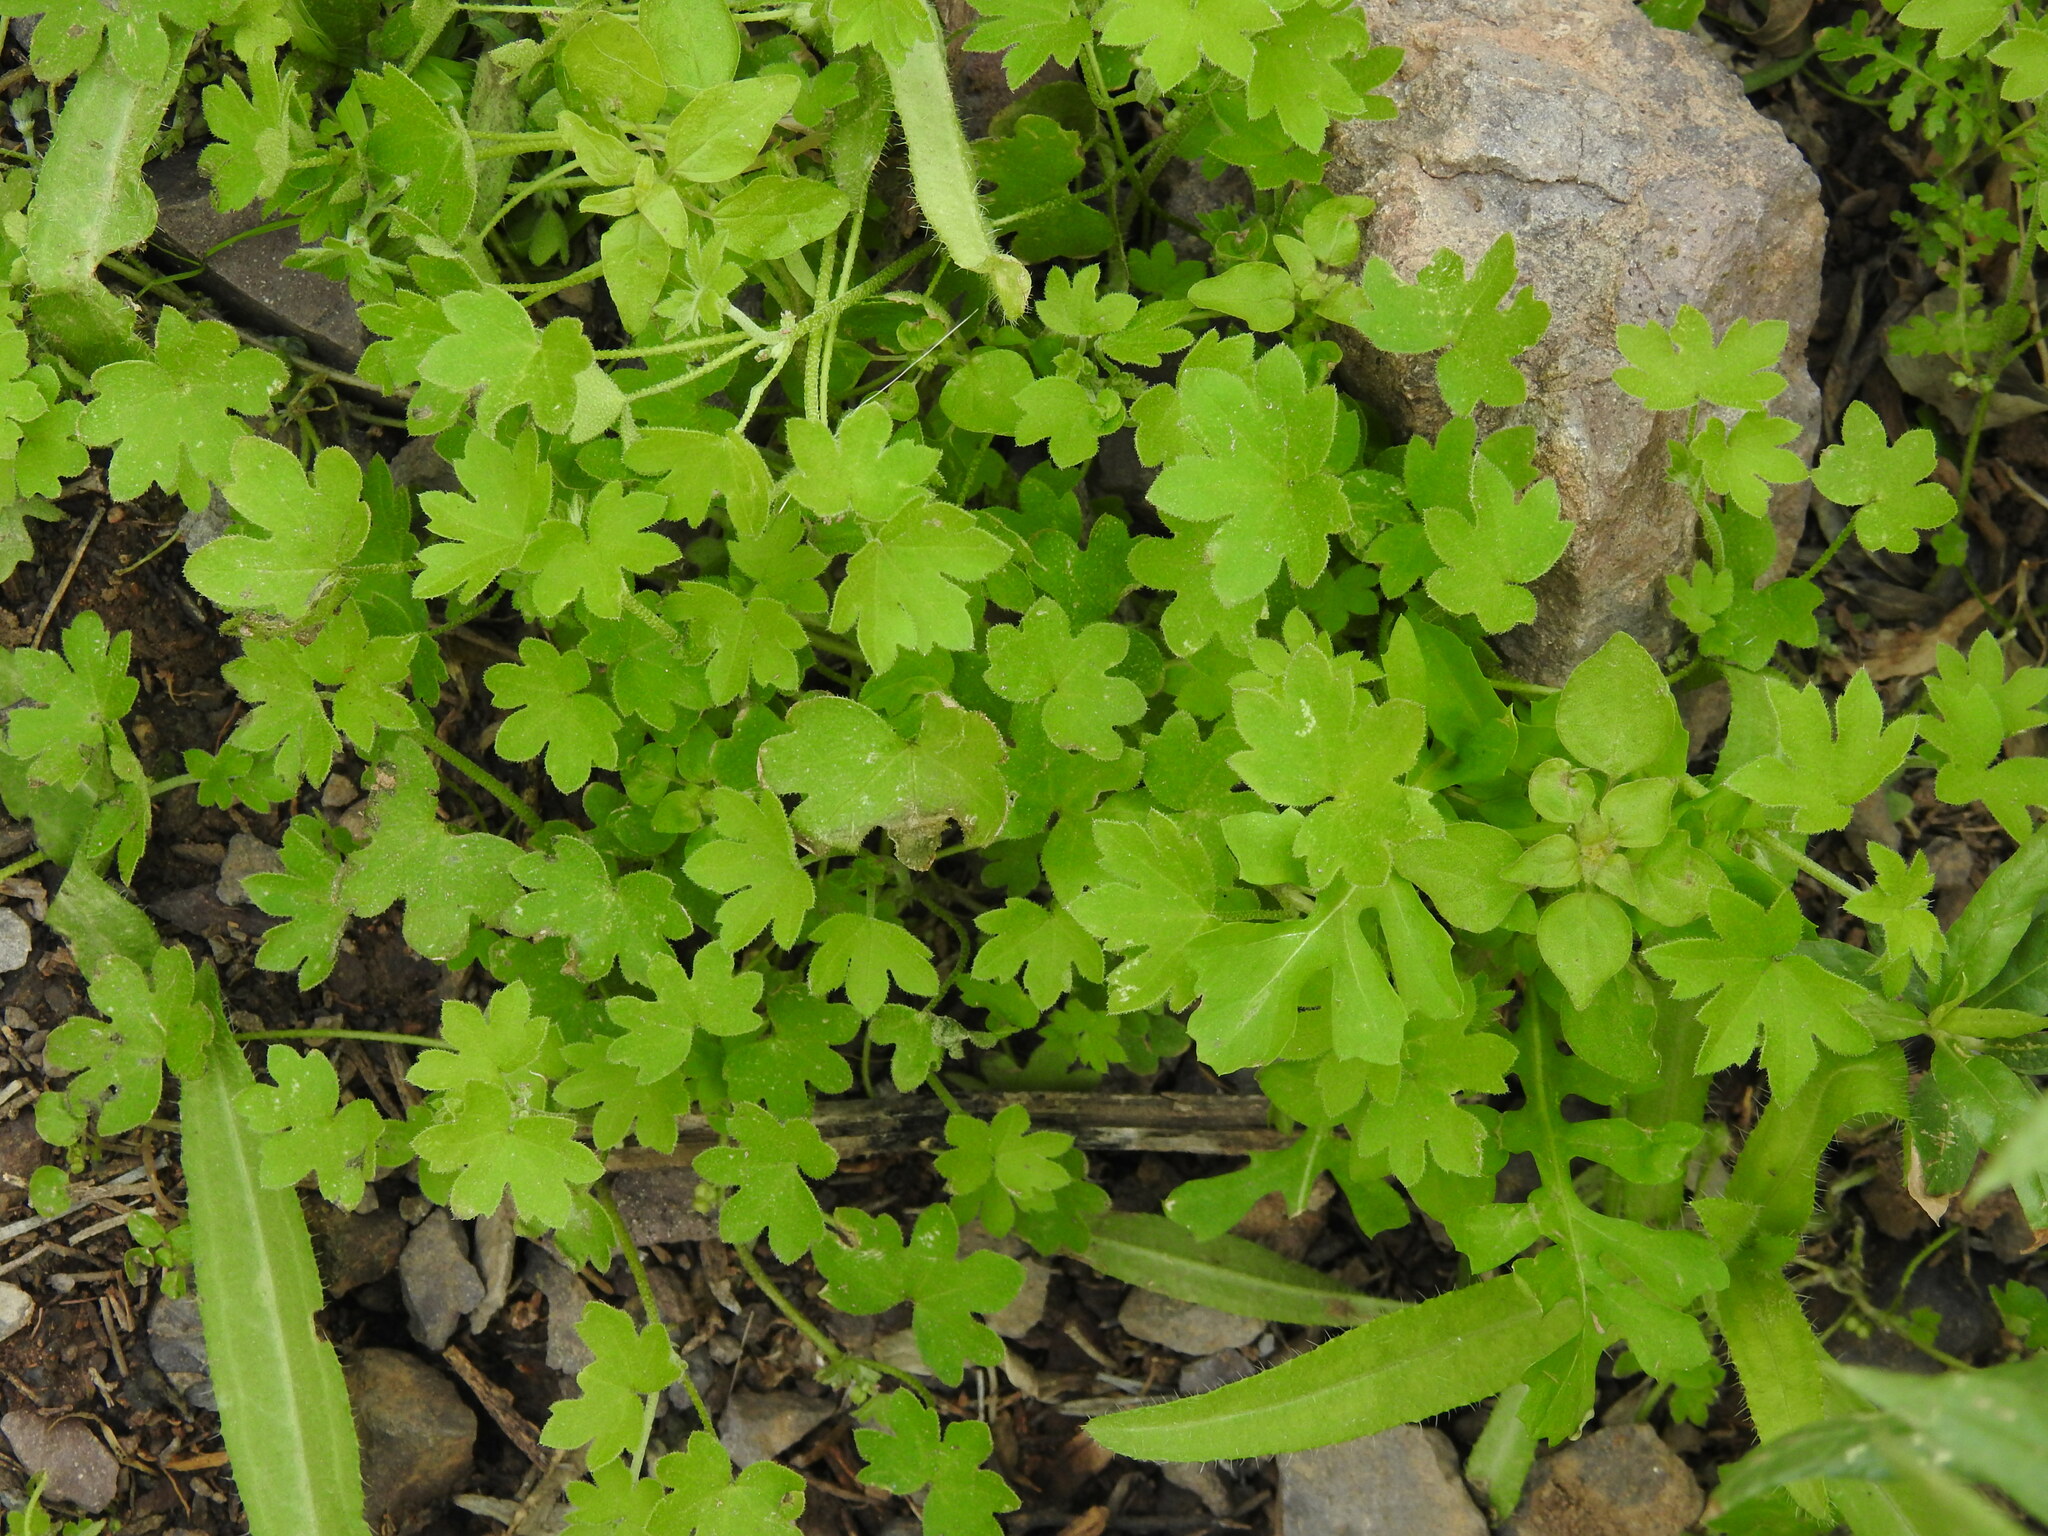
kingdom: Plantae
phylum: Tracheophyta
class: Magnoliopsida
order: Apiales
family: Apiaceae
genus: Bowlesia
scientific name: Bowlesia incana
